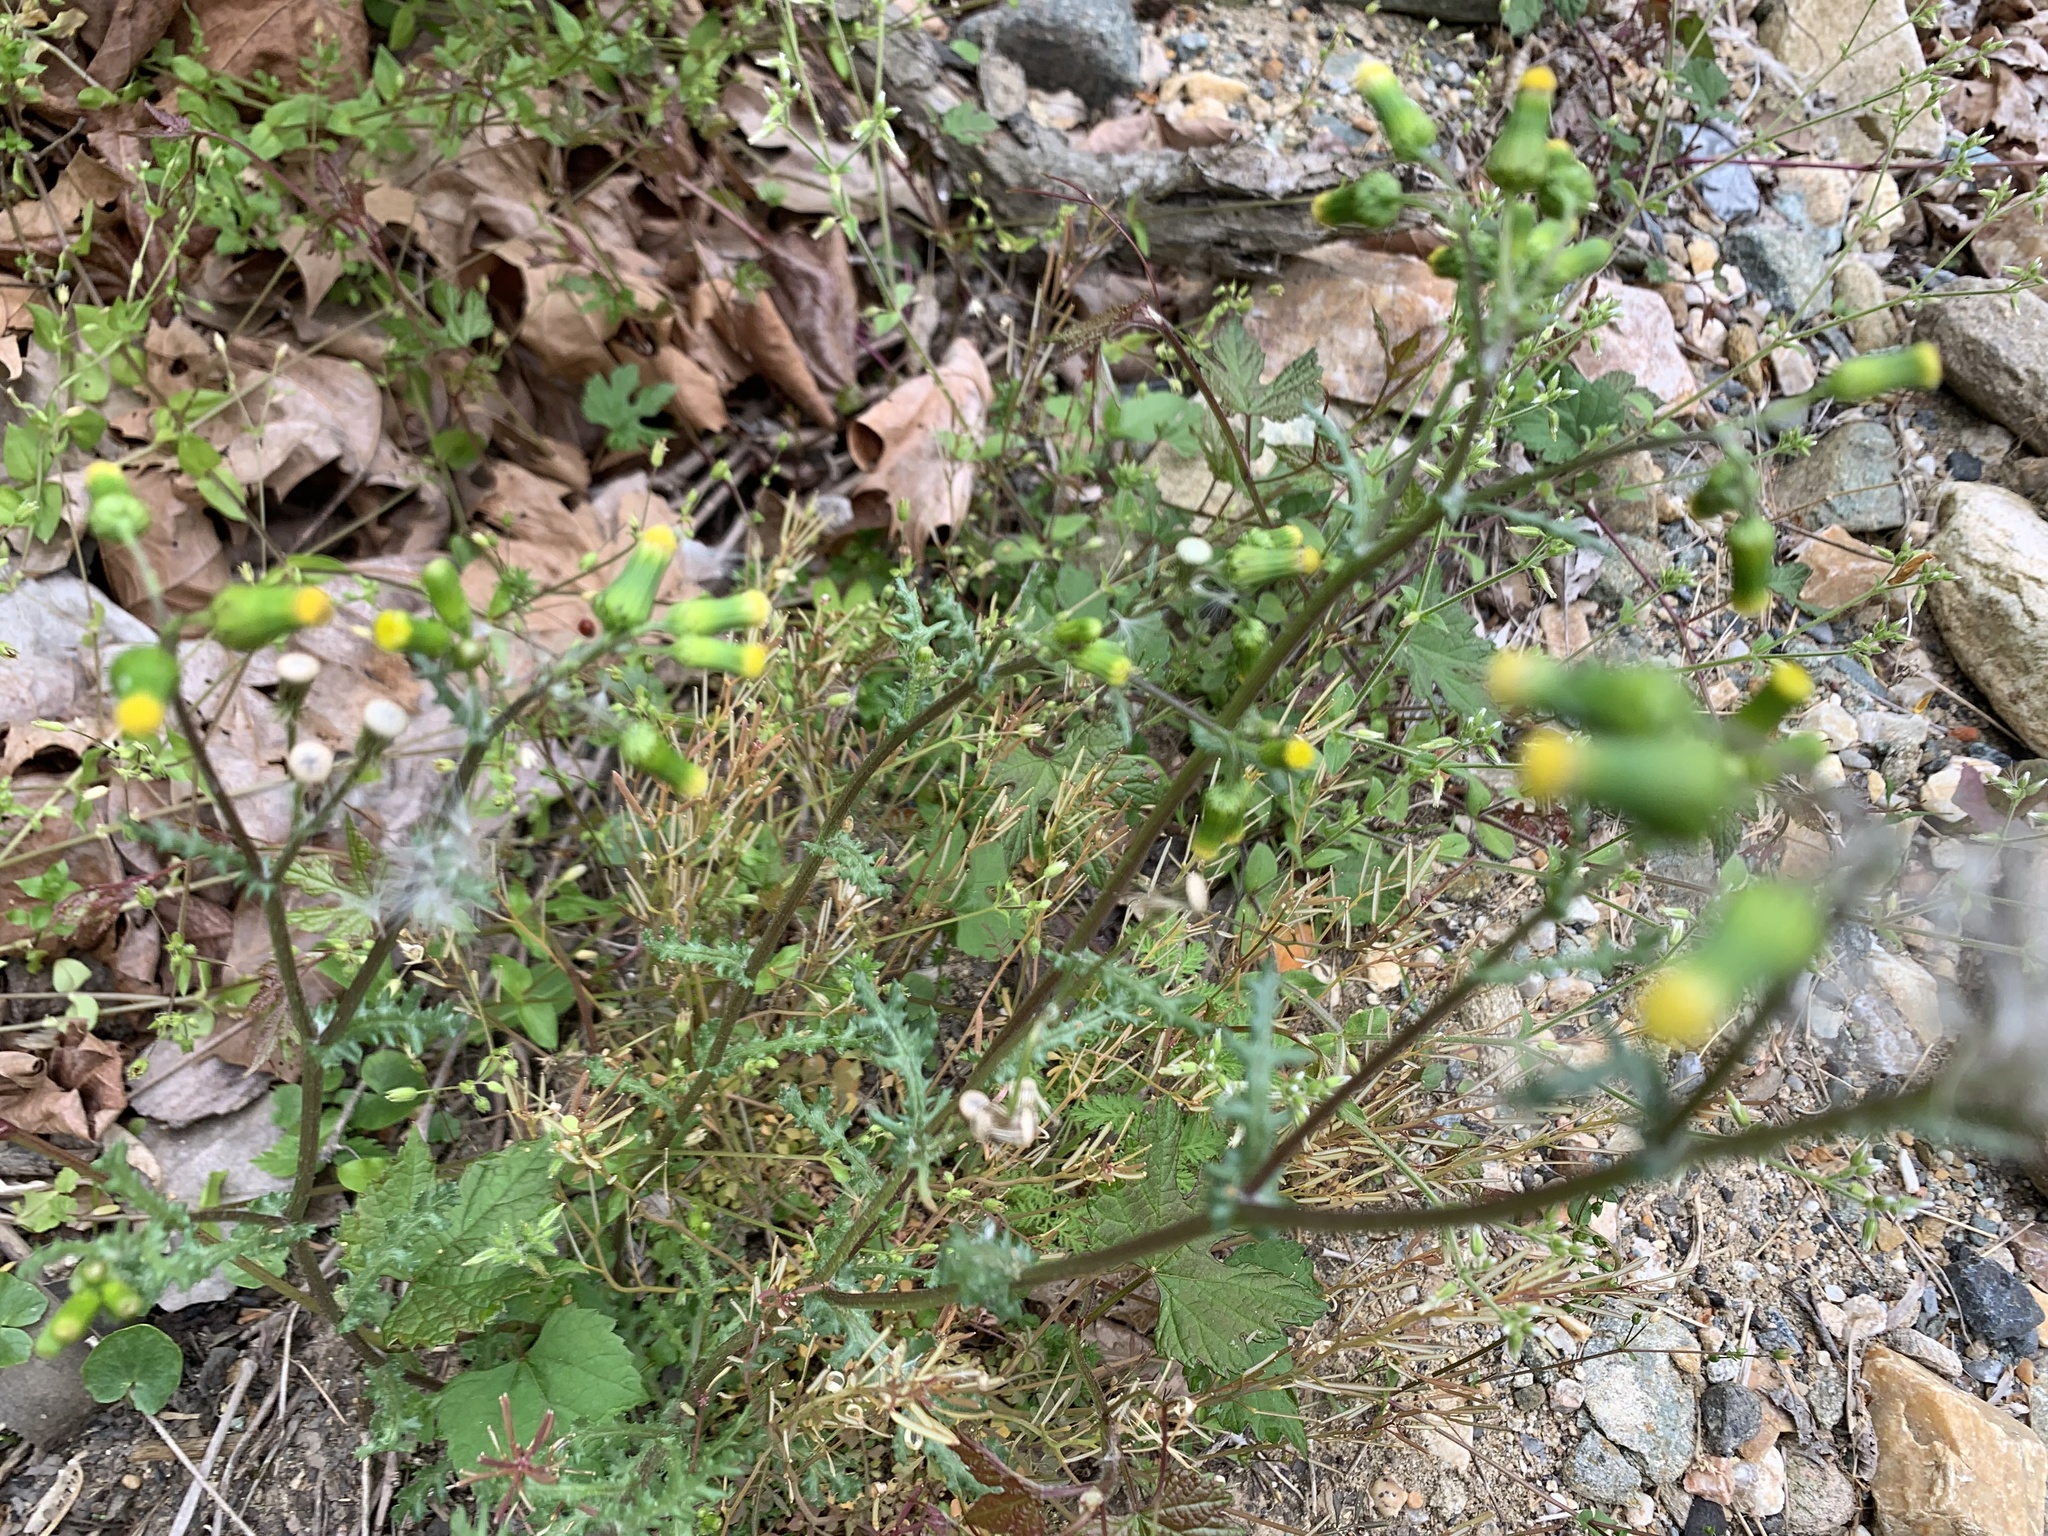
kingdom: Plantae
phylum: Tracheophyta
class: Magnoliopsida
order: Asterales
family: Asteraceae
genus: Senecio
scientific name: Senecio vulgaris
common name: Old-man-in-the-spring
